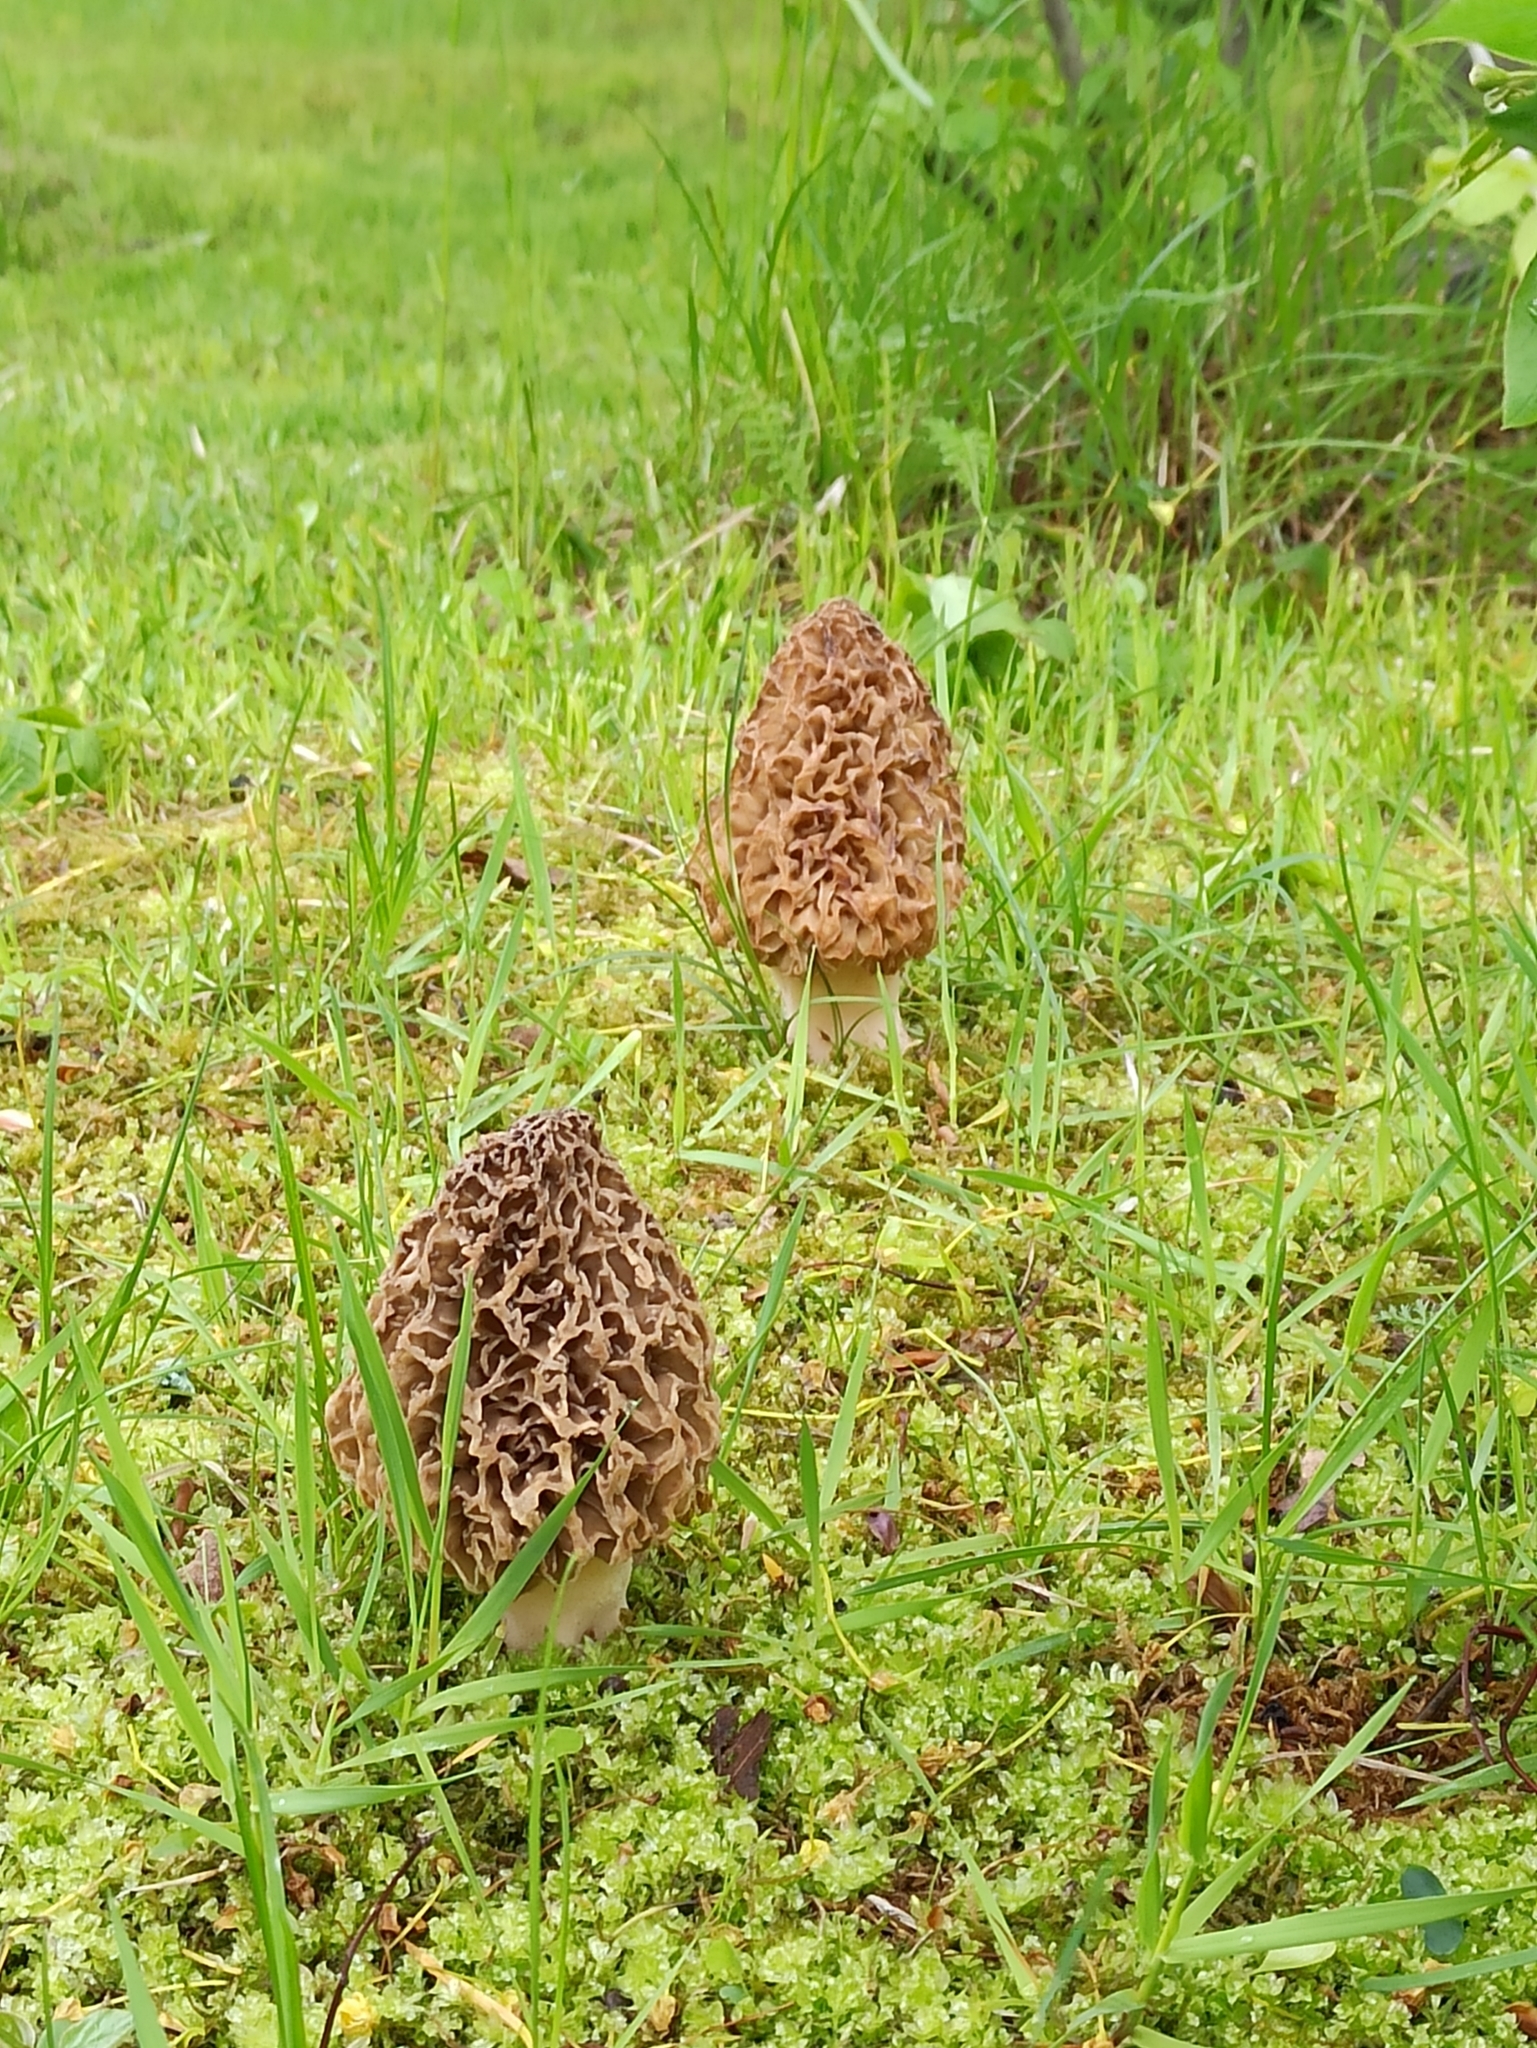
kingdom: Fungi
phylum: Ascomycota
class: Pezizomycetes
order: Pezizales
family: Morchellaceae
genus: Morchella
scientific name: Morchella
